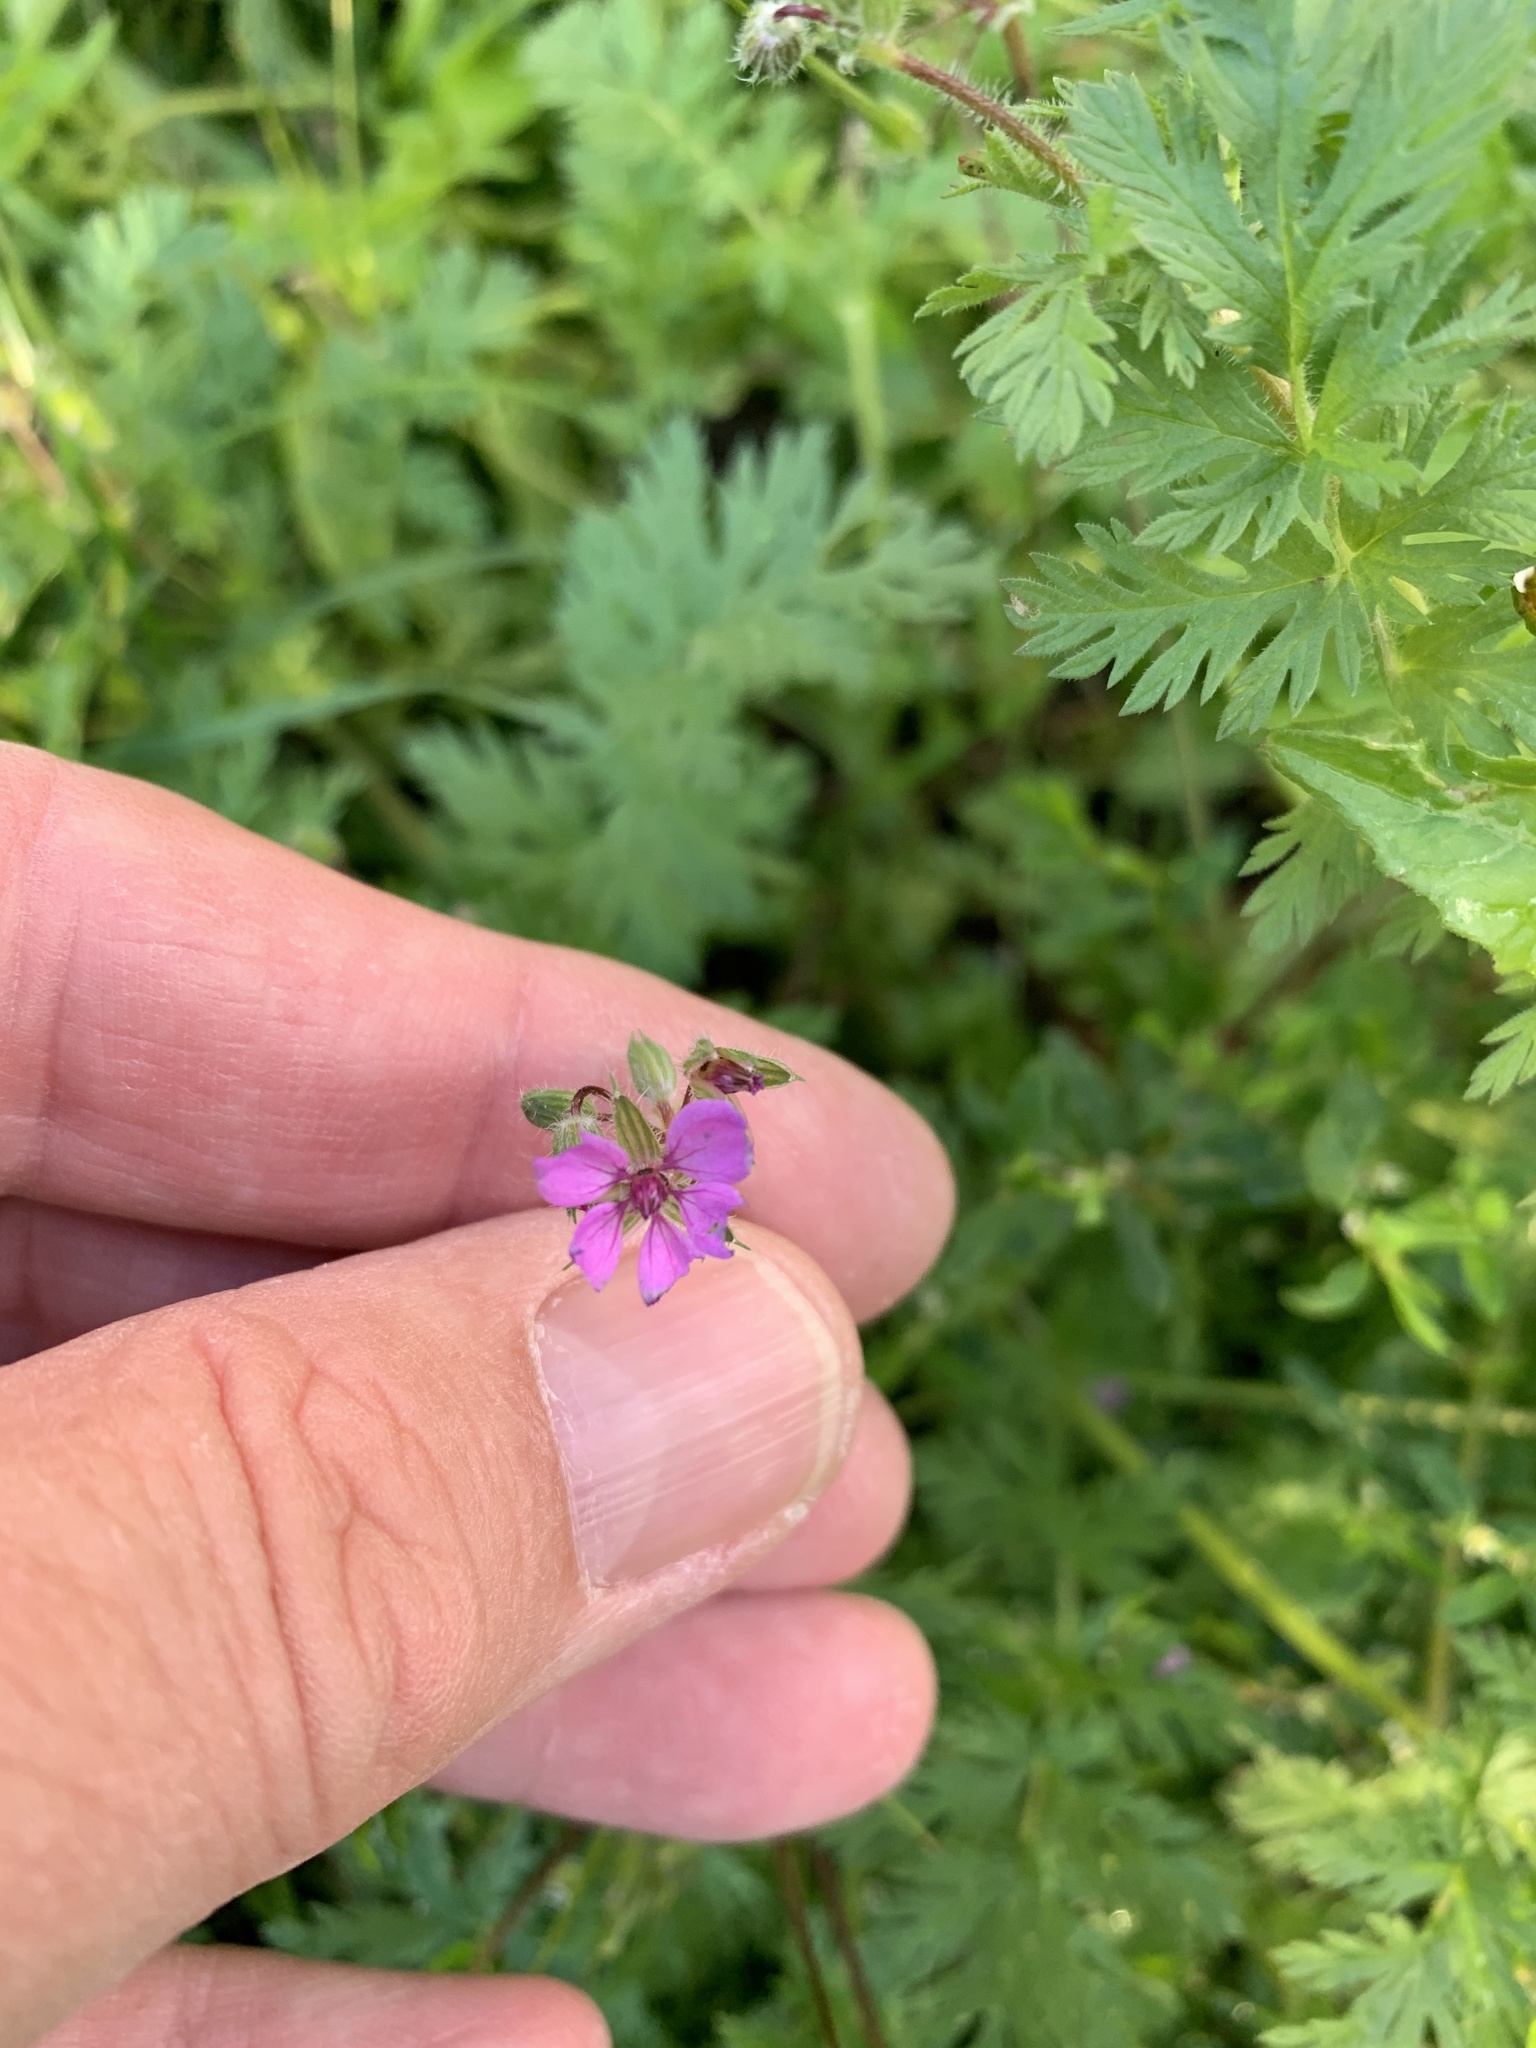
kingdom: Plantae
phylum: Tracheophyta
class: Magnoliopsida
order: Geraniales
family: Geraniaceae
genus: Erodium
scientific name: Erodium cicutarium
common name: Common stork's-bill
